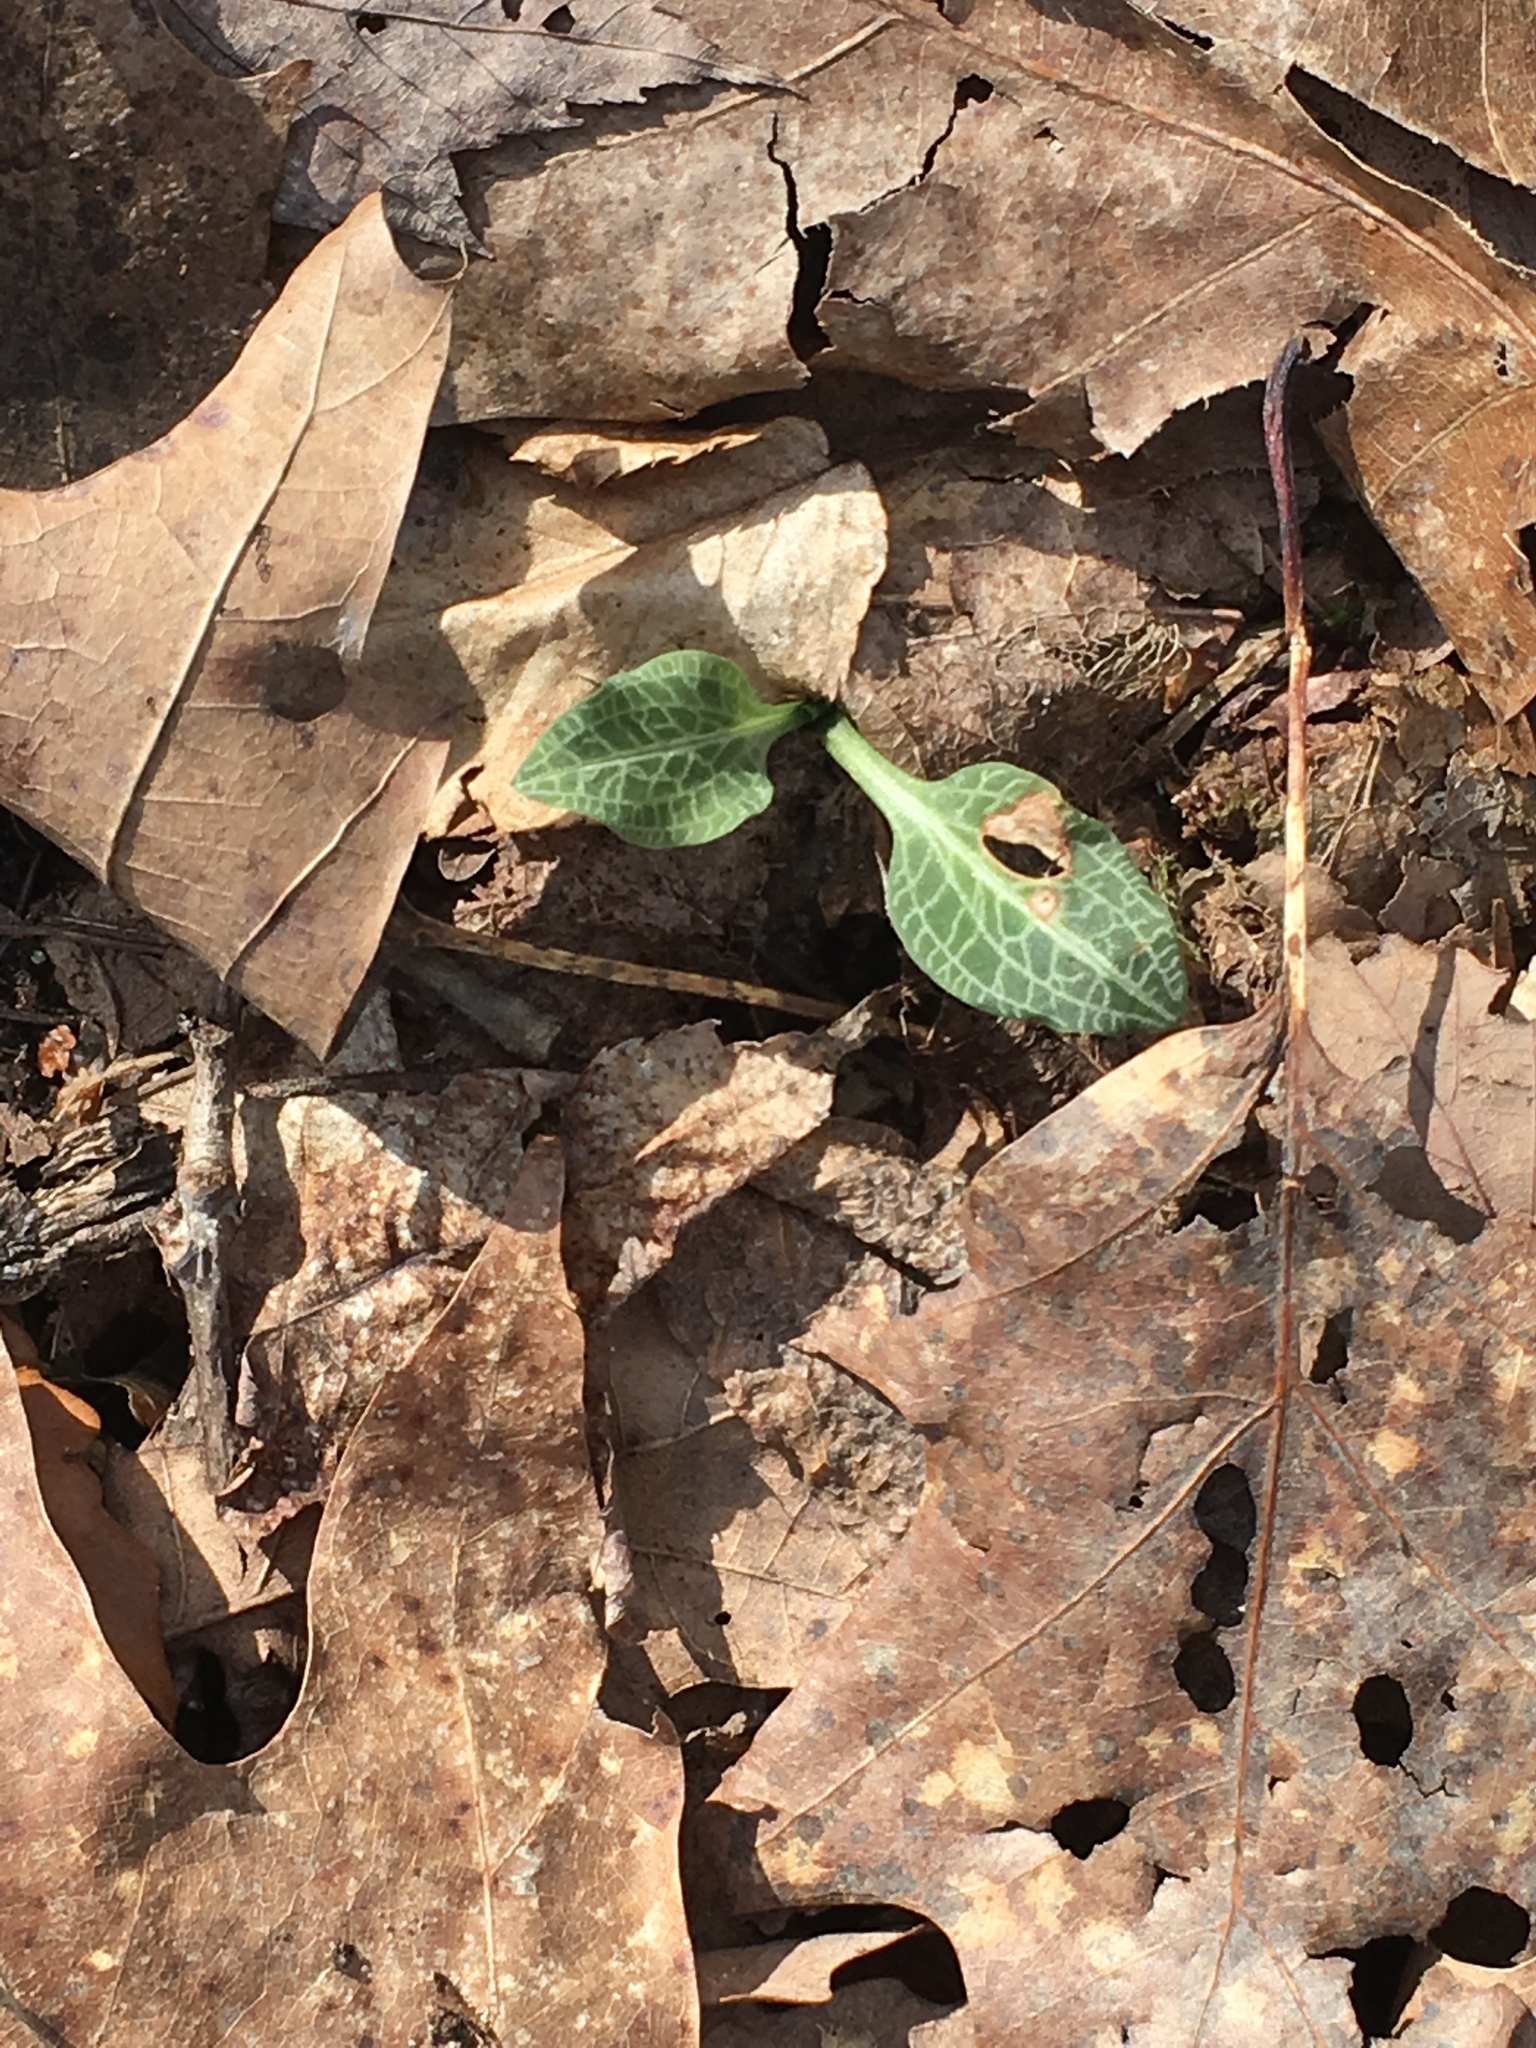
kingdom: Plantae
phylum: Tracheophyta
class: Liliopsida
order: Asparagales
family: Orchidaceae
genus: Goodyera
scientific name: Goodyera pubescens
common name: Downy rattlesnake-plantain
